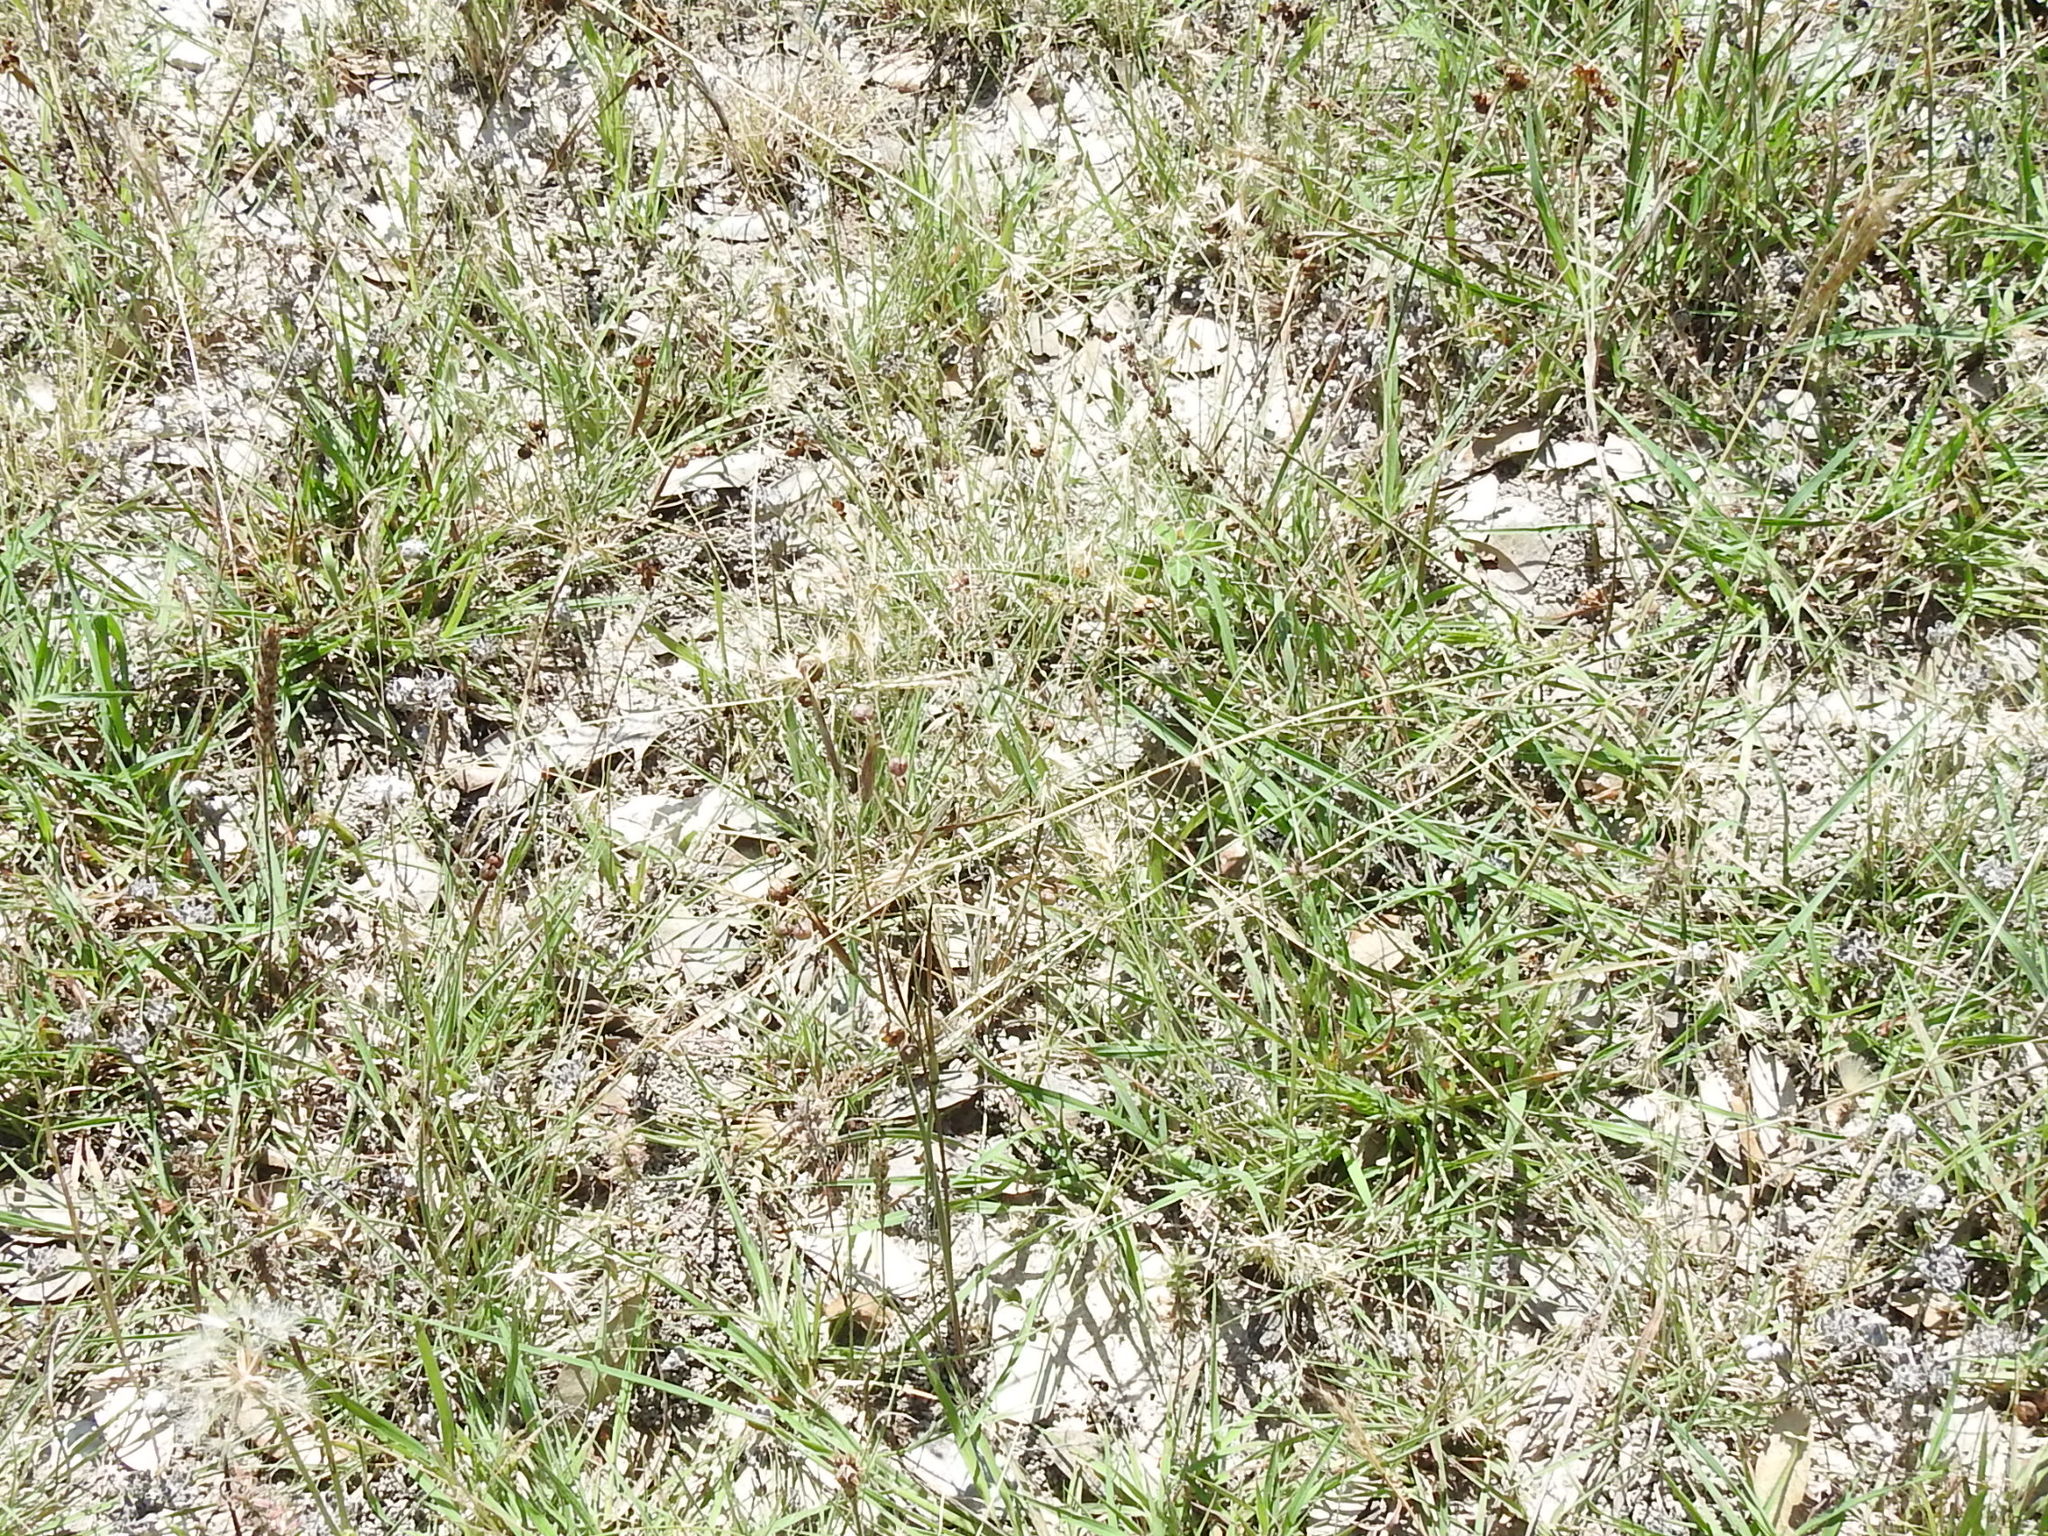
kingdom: Plantae
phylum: Tracheophyta
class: Liliopsida
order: Poales
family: Poaceae
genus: Bouteloua
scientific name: Bouteloua rigidiseta
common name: Texas grama
